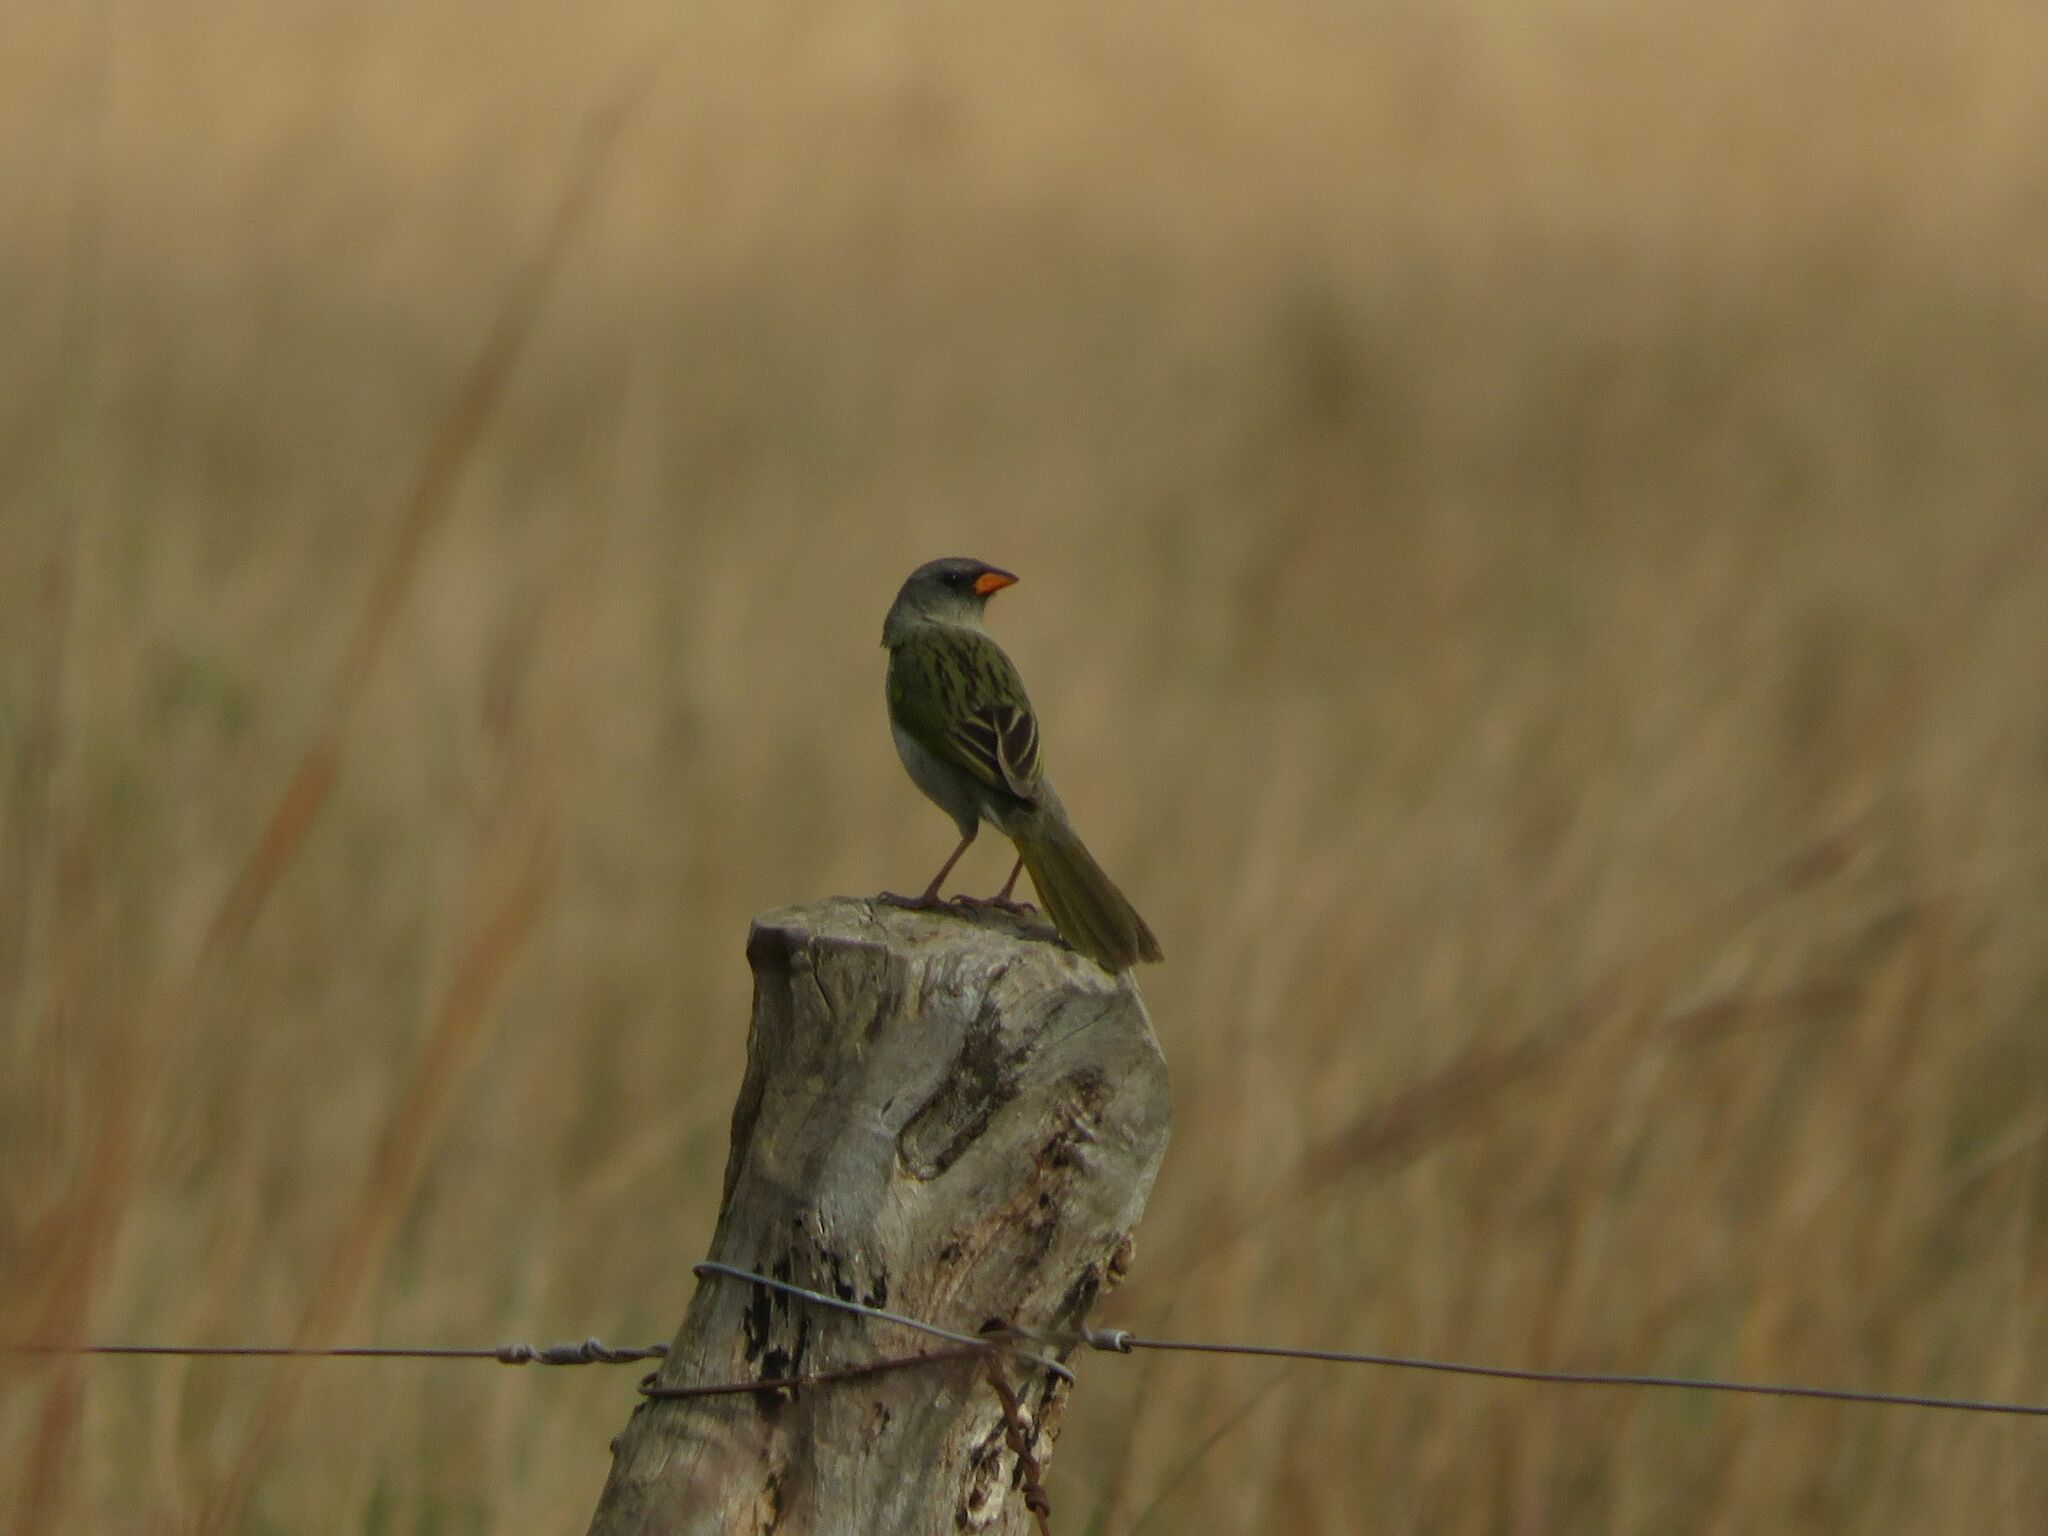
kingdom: Animalia
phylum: Chordata
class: Aves
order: Passeriformes
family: Thraupidae
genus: Embernagra
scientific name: Embernagra platensis
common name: Pampa finch
